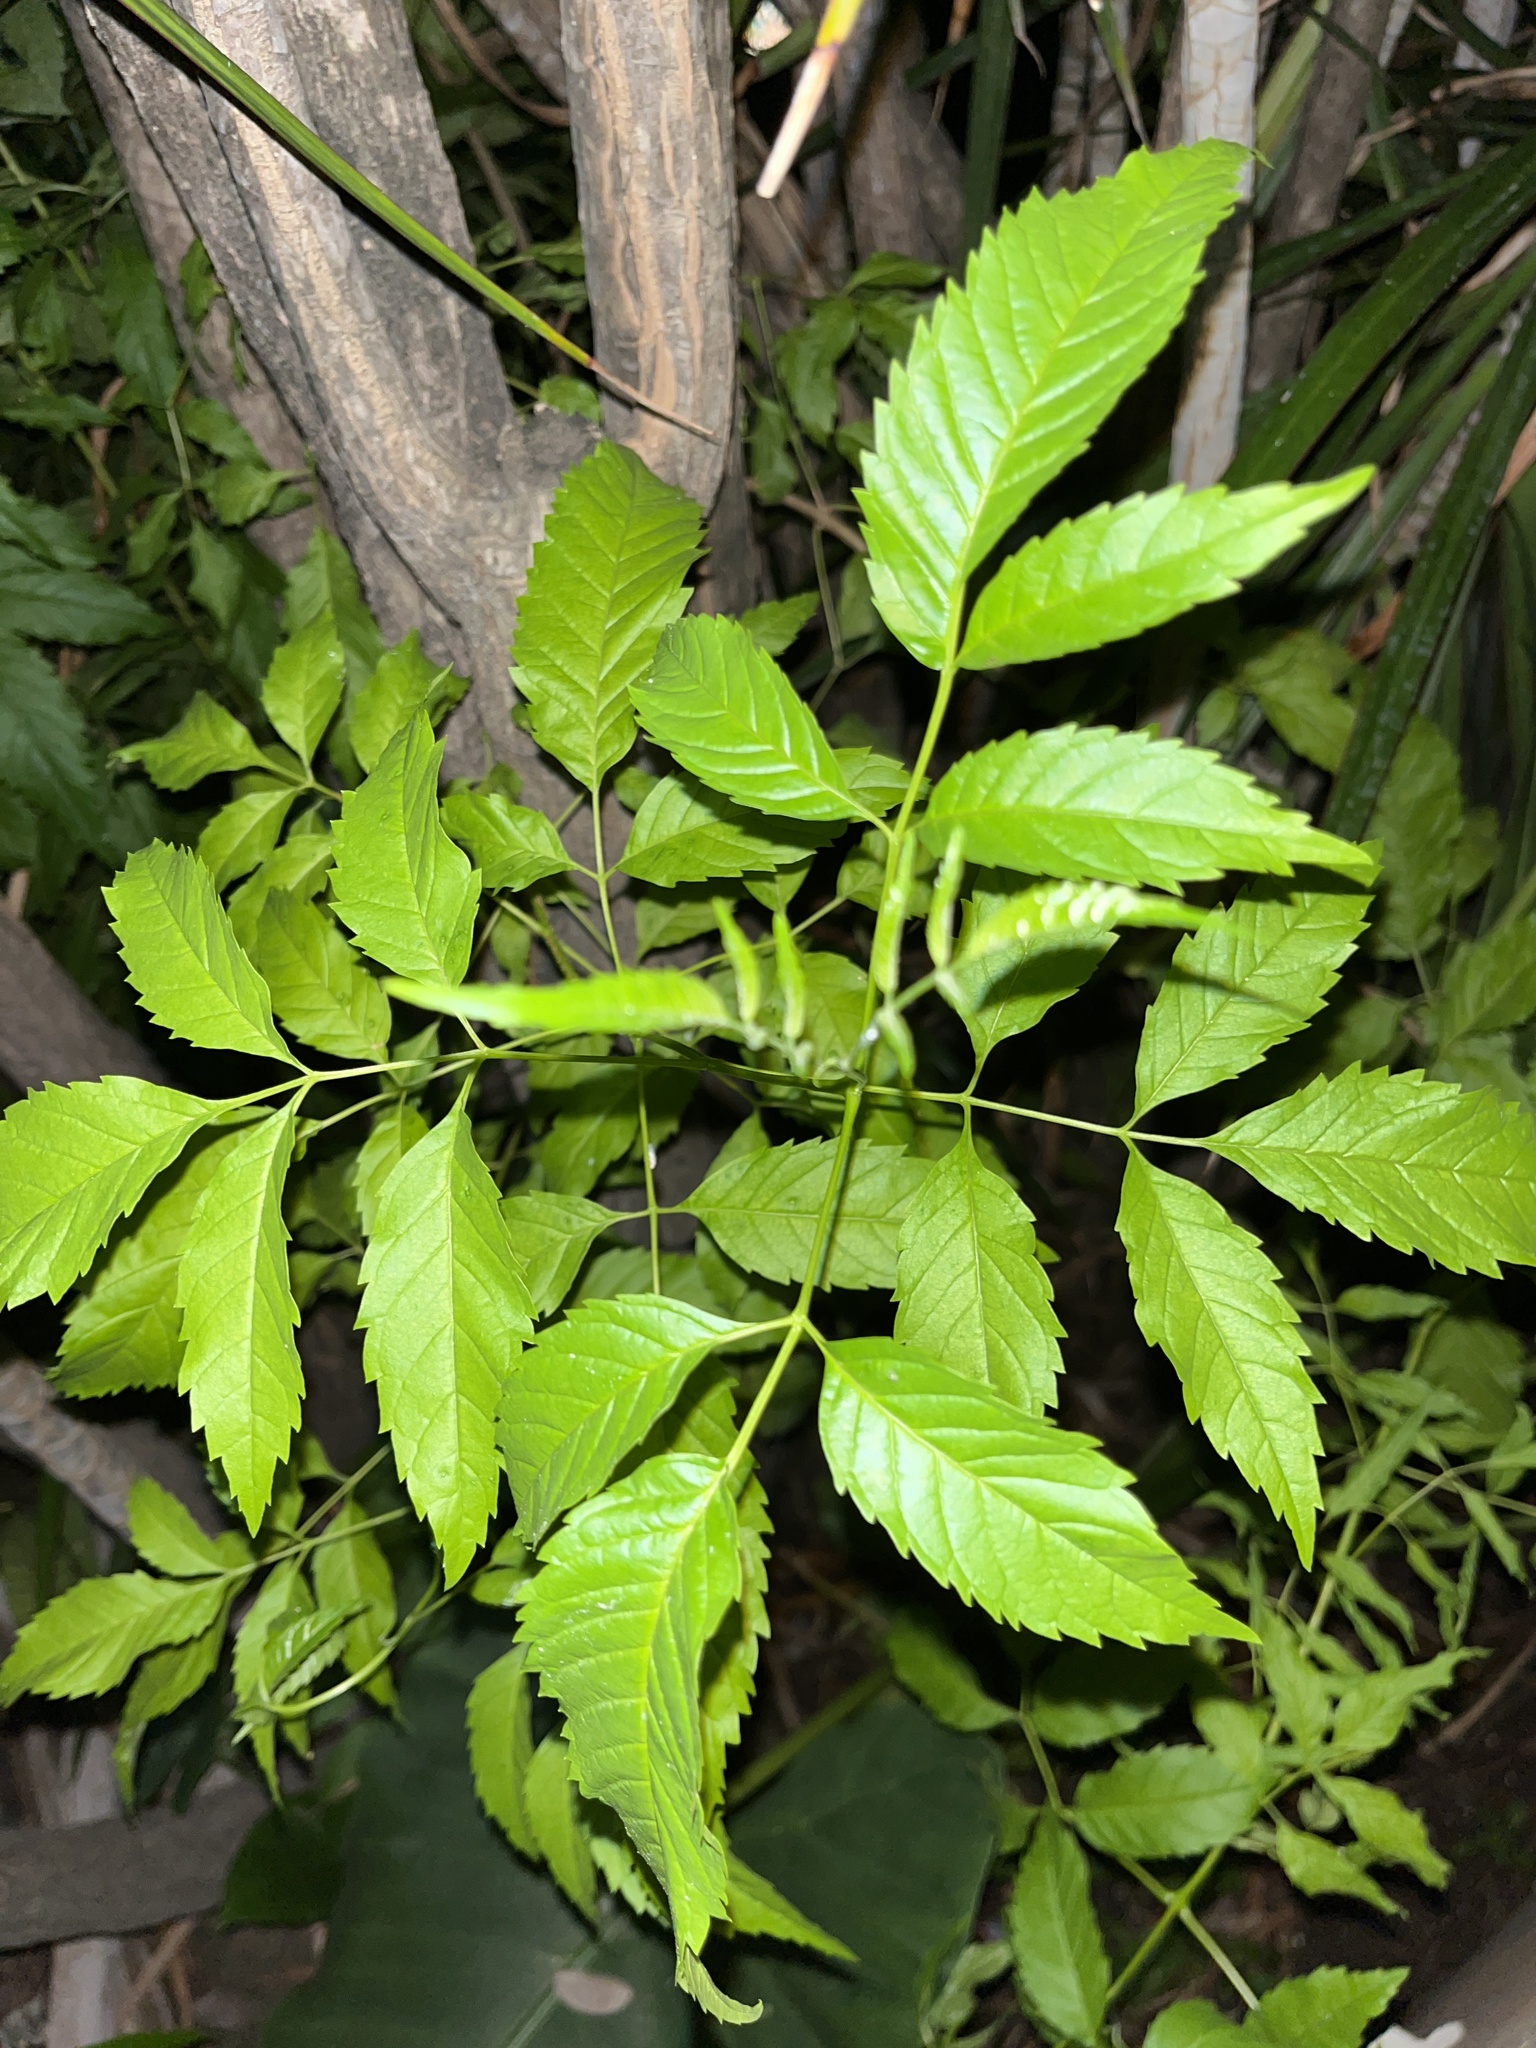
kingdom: Plantae
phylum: Tracheophyta
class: Magnoliopsida
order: Lamiales
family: Bignoniaceae
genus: Tecoma
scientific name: Tecoma stans
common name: Yellow trumpetbush
